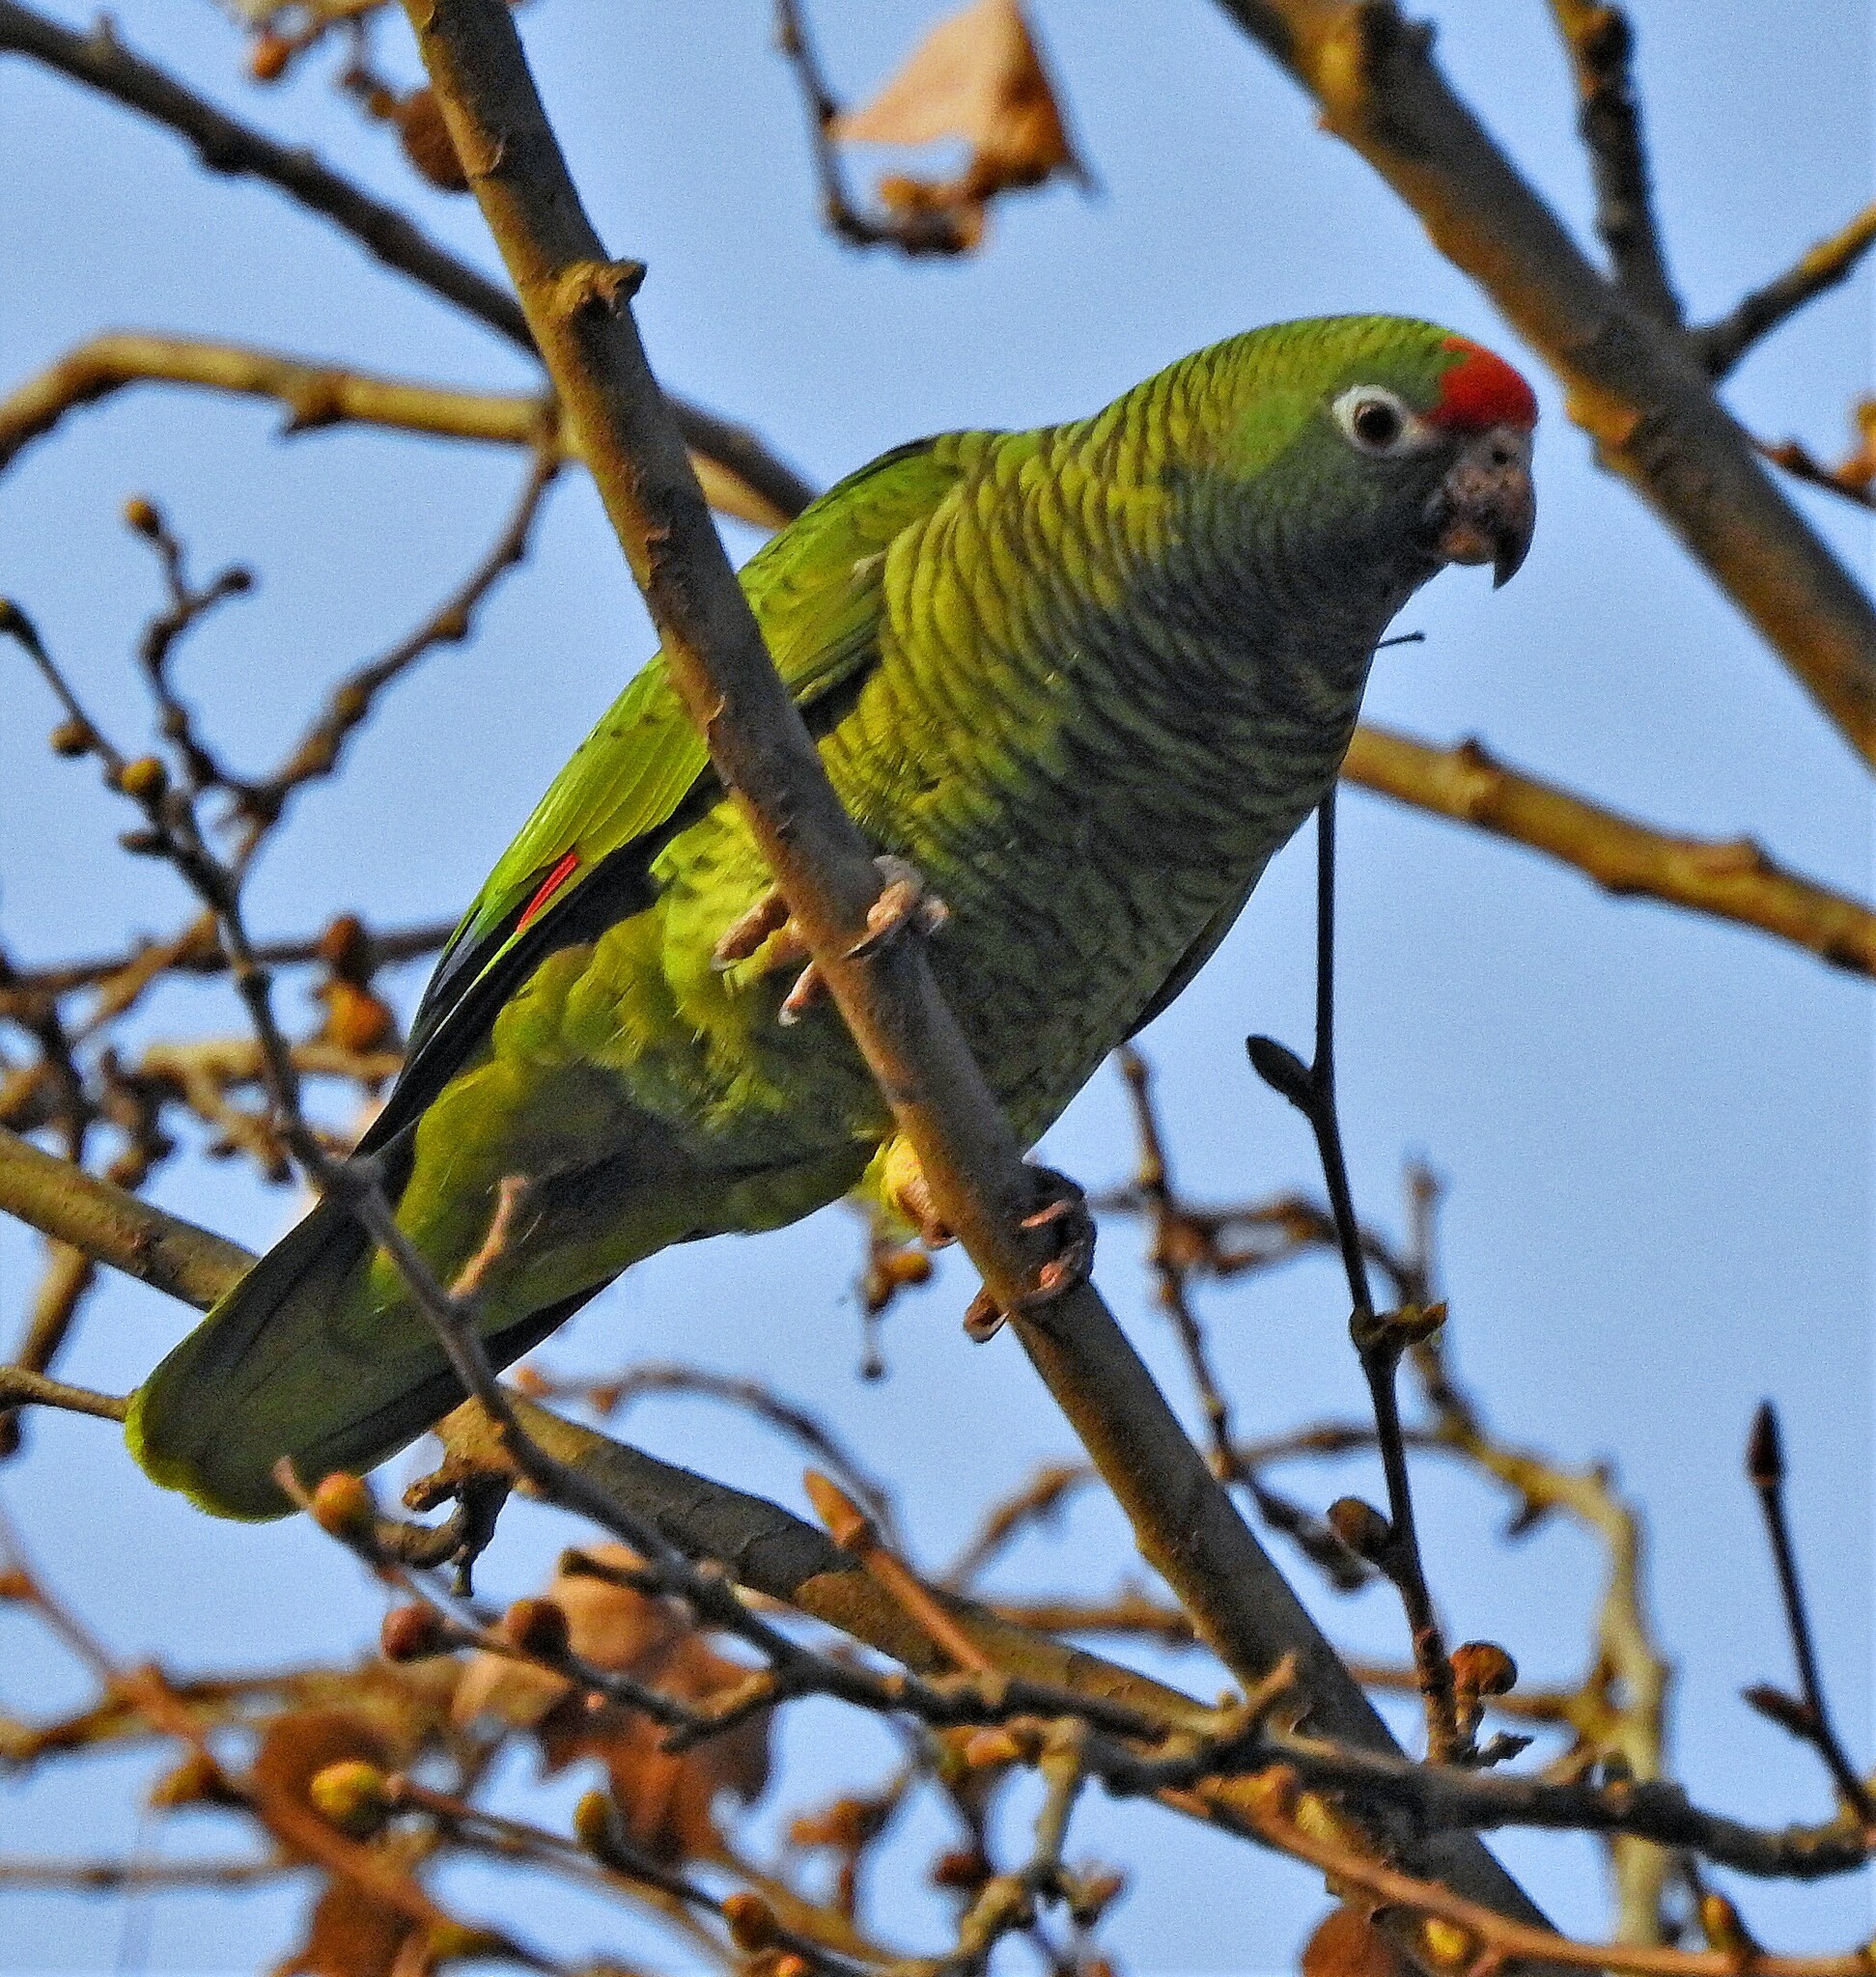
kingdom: Animalia
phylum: Chordata
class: Aves
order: Psittaciformes
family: Psittacidae
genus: Amazona
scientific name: Amazona tucumana
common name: Tucuman amazon
